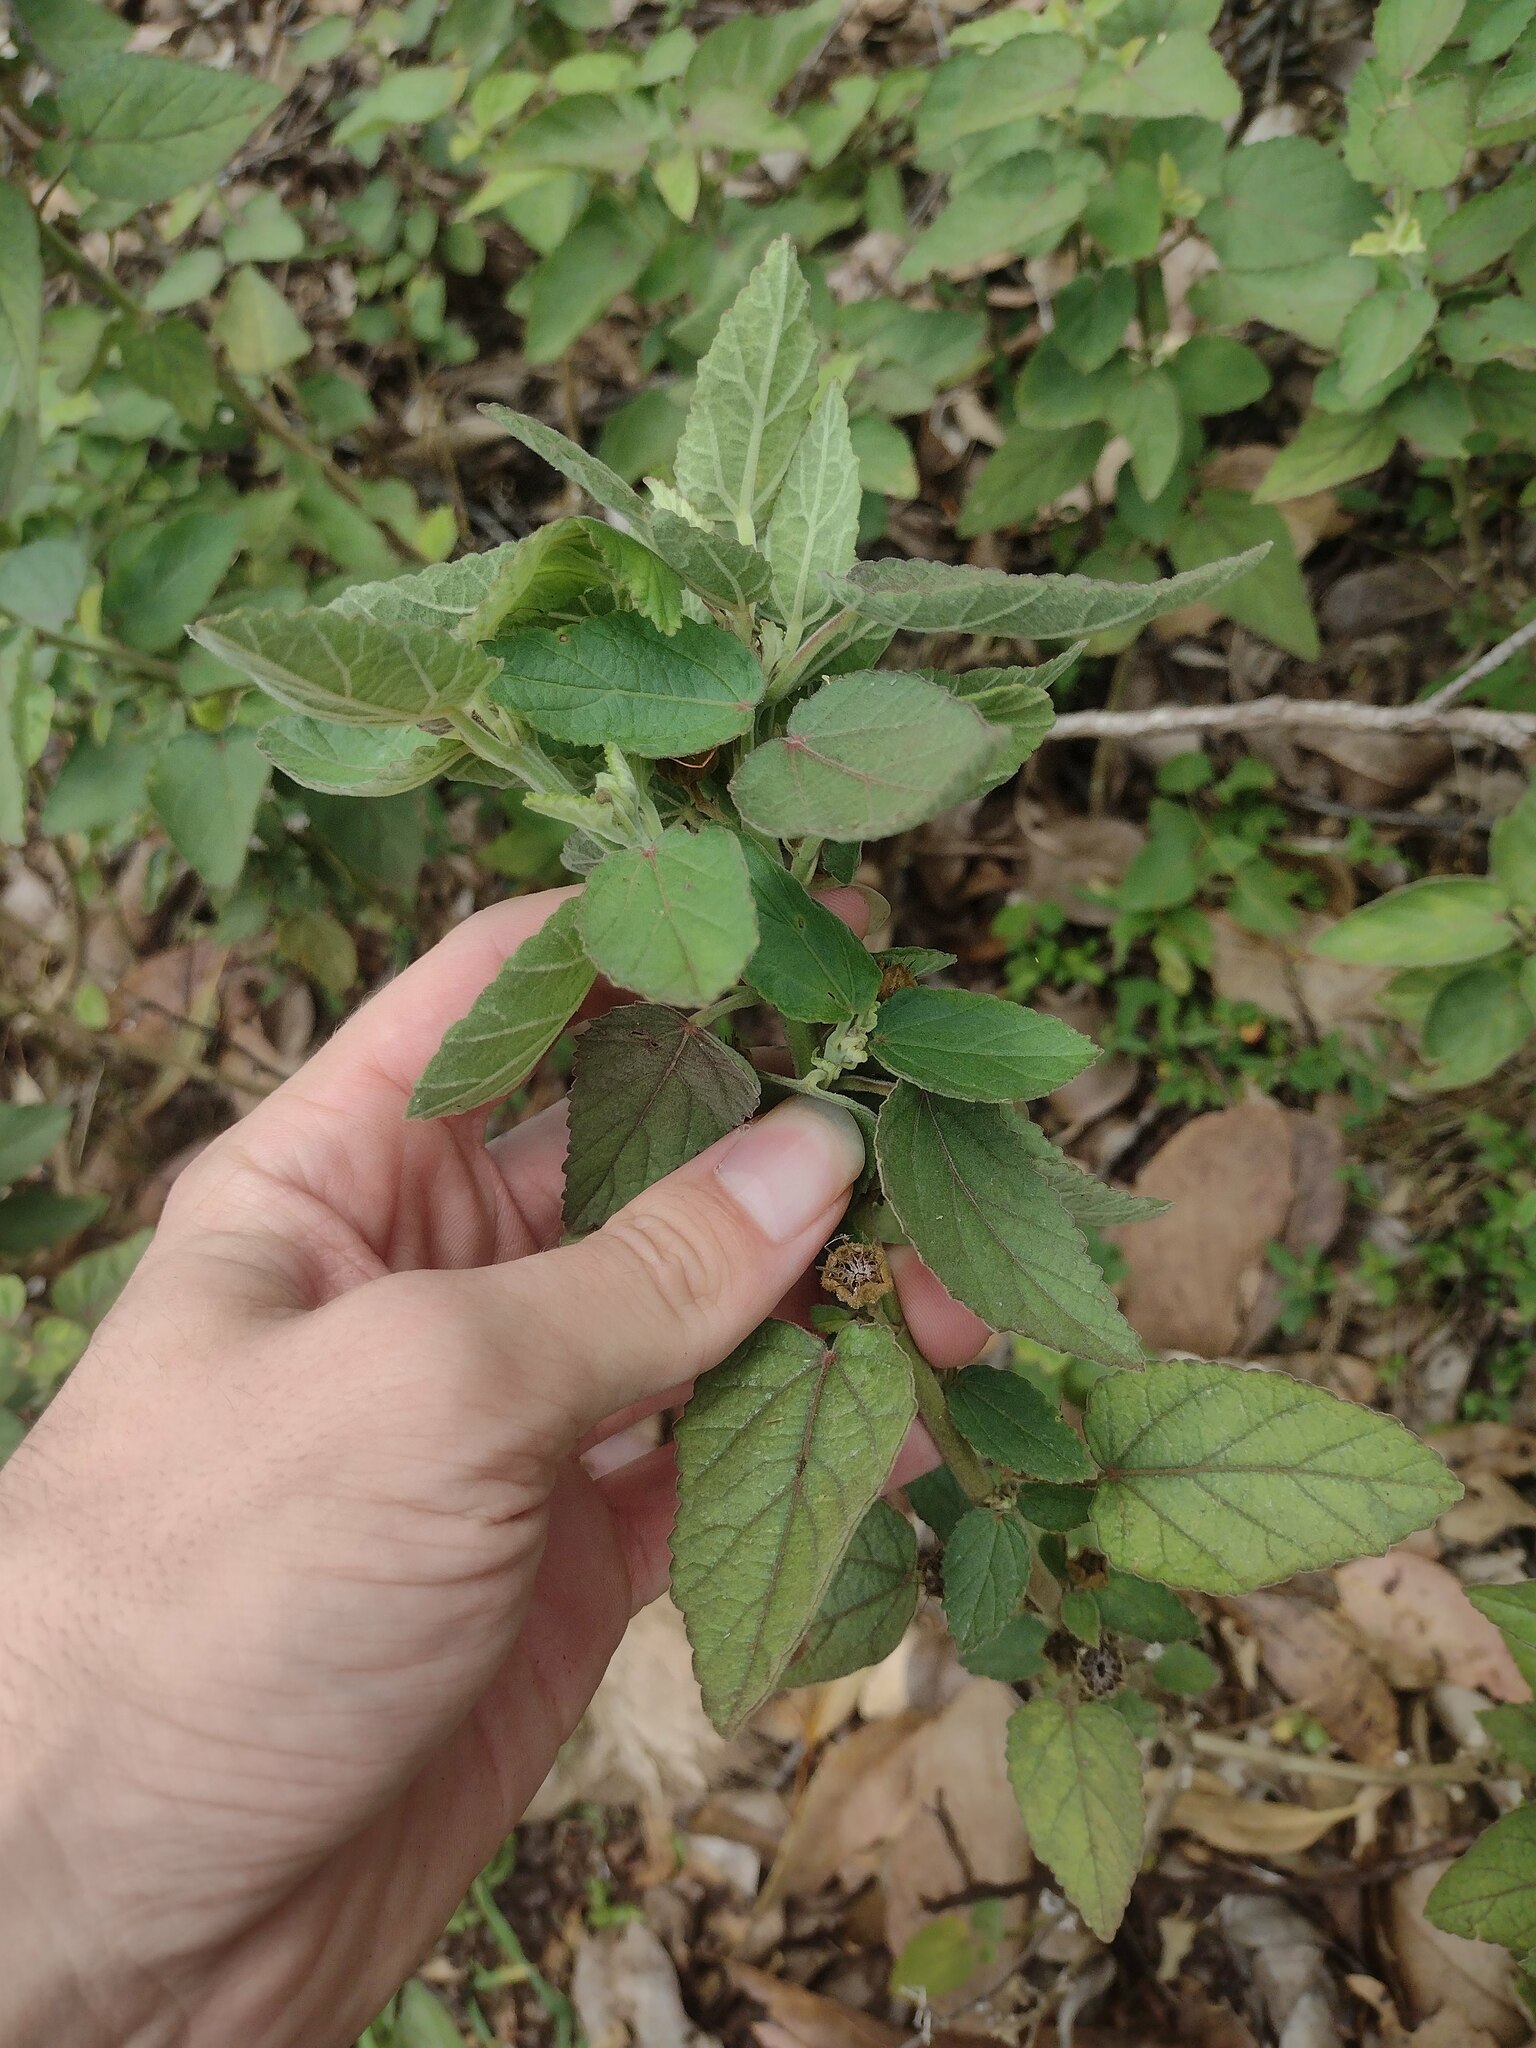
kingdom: Plantae
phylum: Tracheophyta
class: Magnoliopsida
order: Malvales
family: Malvaceae
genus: Sida
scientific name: Sida cordifolia
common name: Ilima
